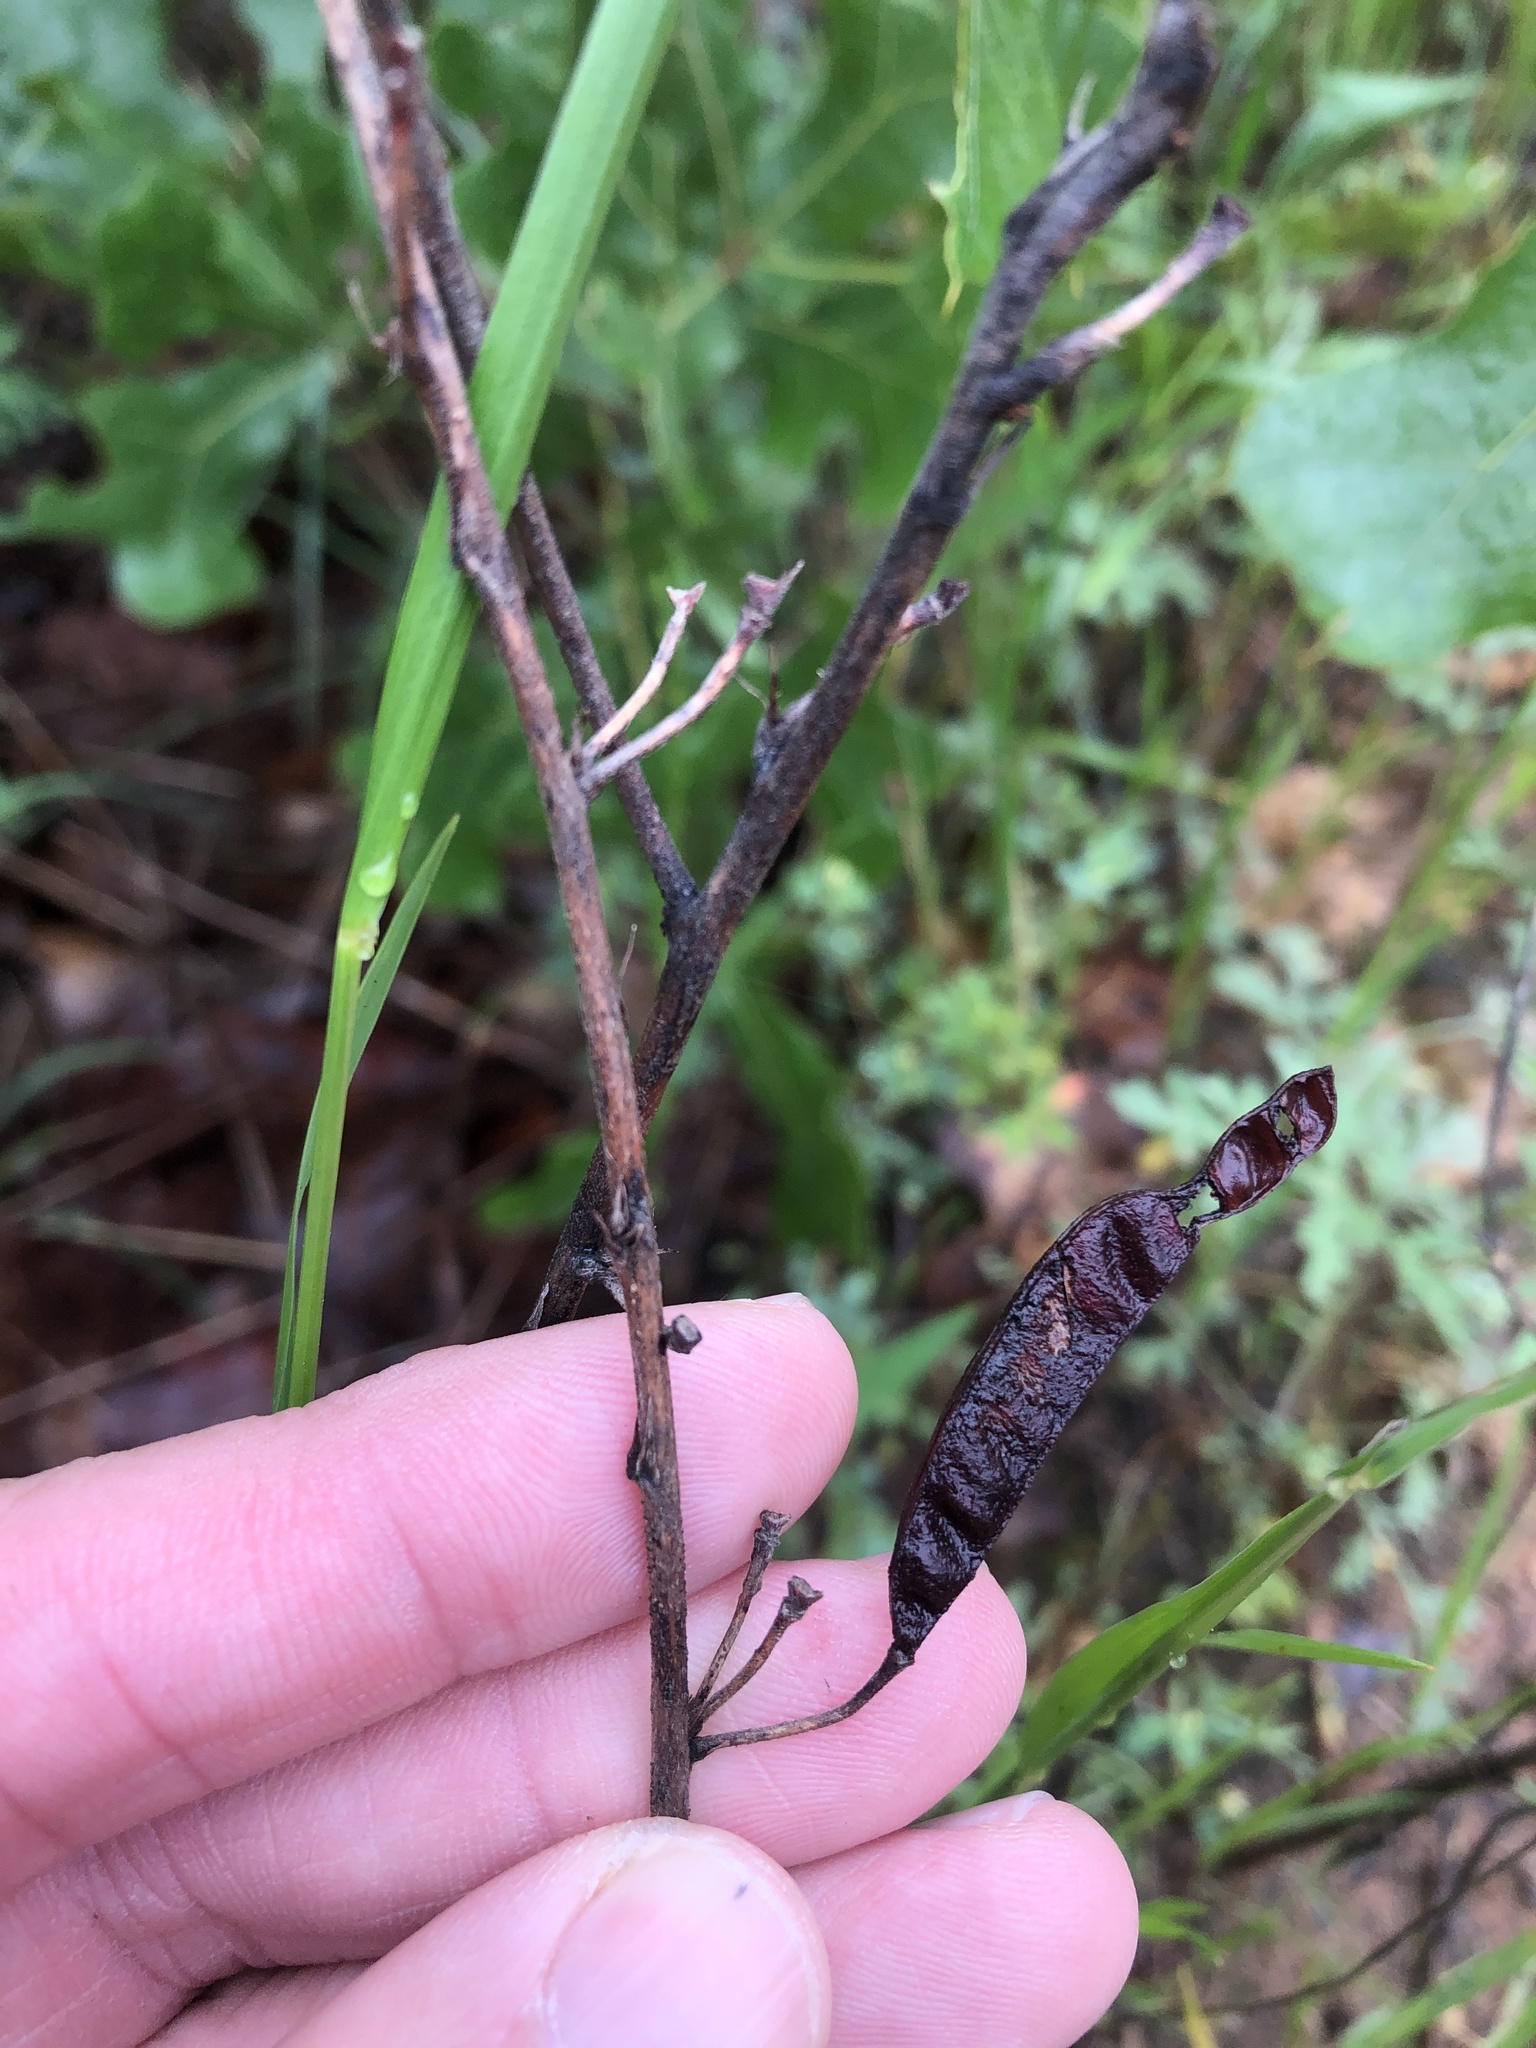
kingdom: Plantae
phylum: Tracheophyta
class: Magnoliopsida
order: Fabales
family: Fabaceae
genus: Chamaecrista
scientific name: Chamaecrista fasciculata
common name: Golden cassia
